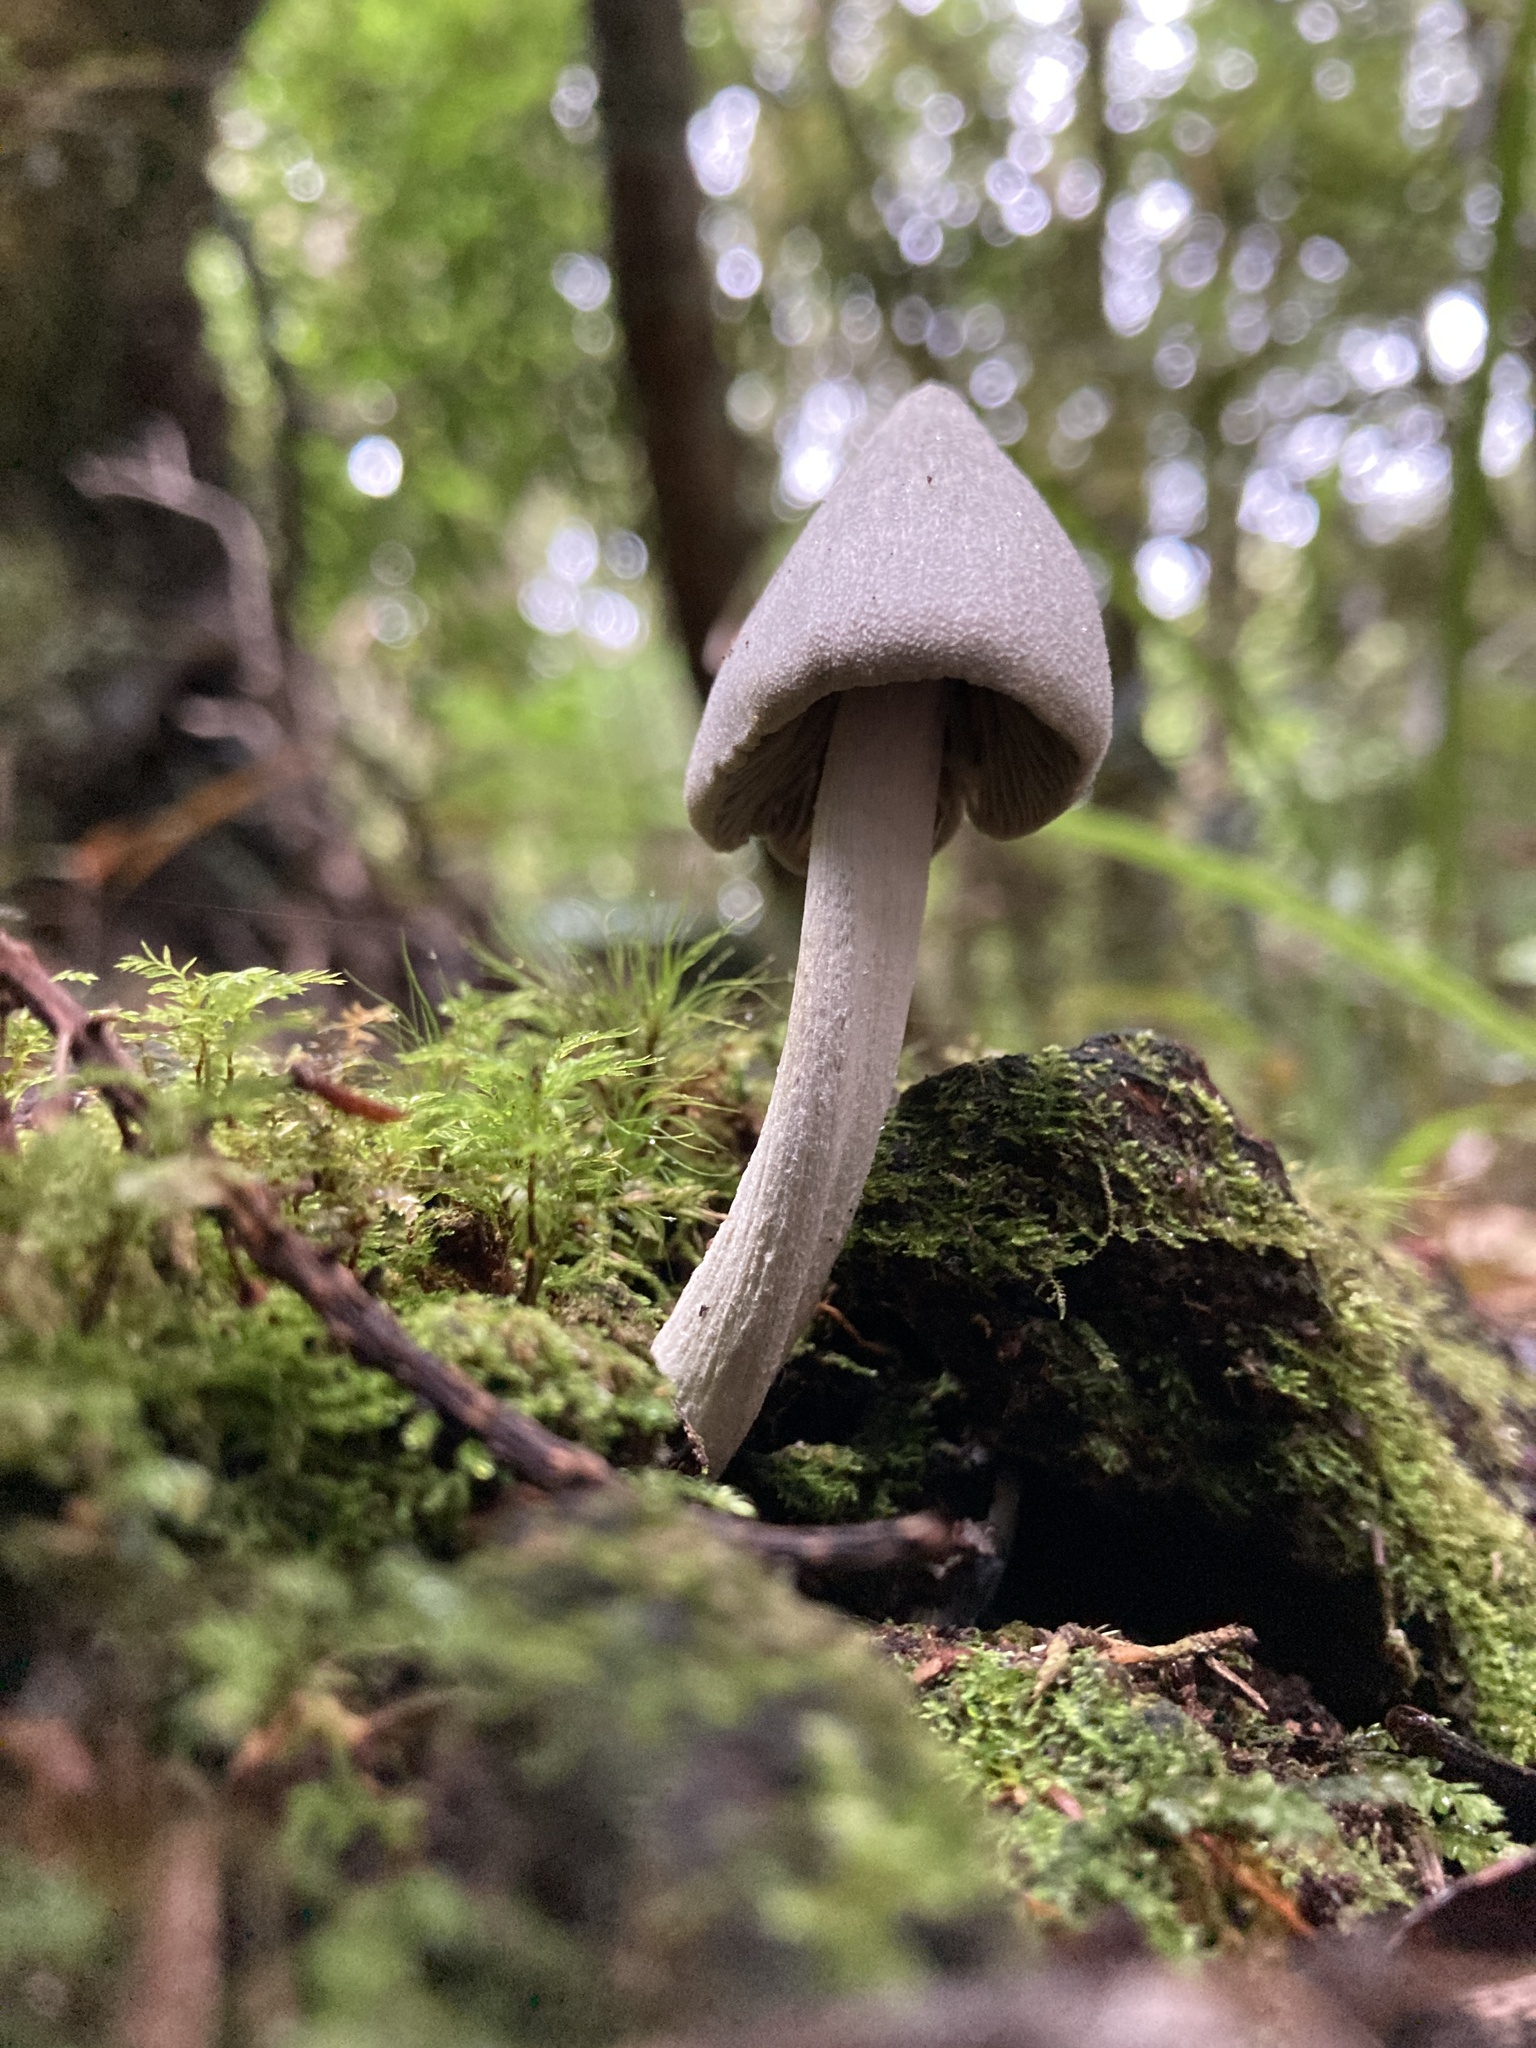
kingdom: Fungi
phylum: Basidiomycota
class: Agaricomycetes
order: Agaricales
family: Entolomataceae
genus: Entoloma
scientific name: Entoloma canoconicum
